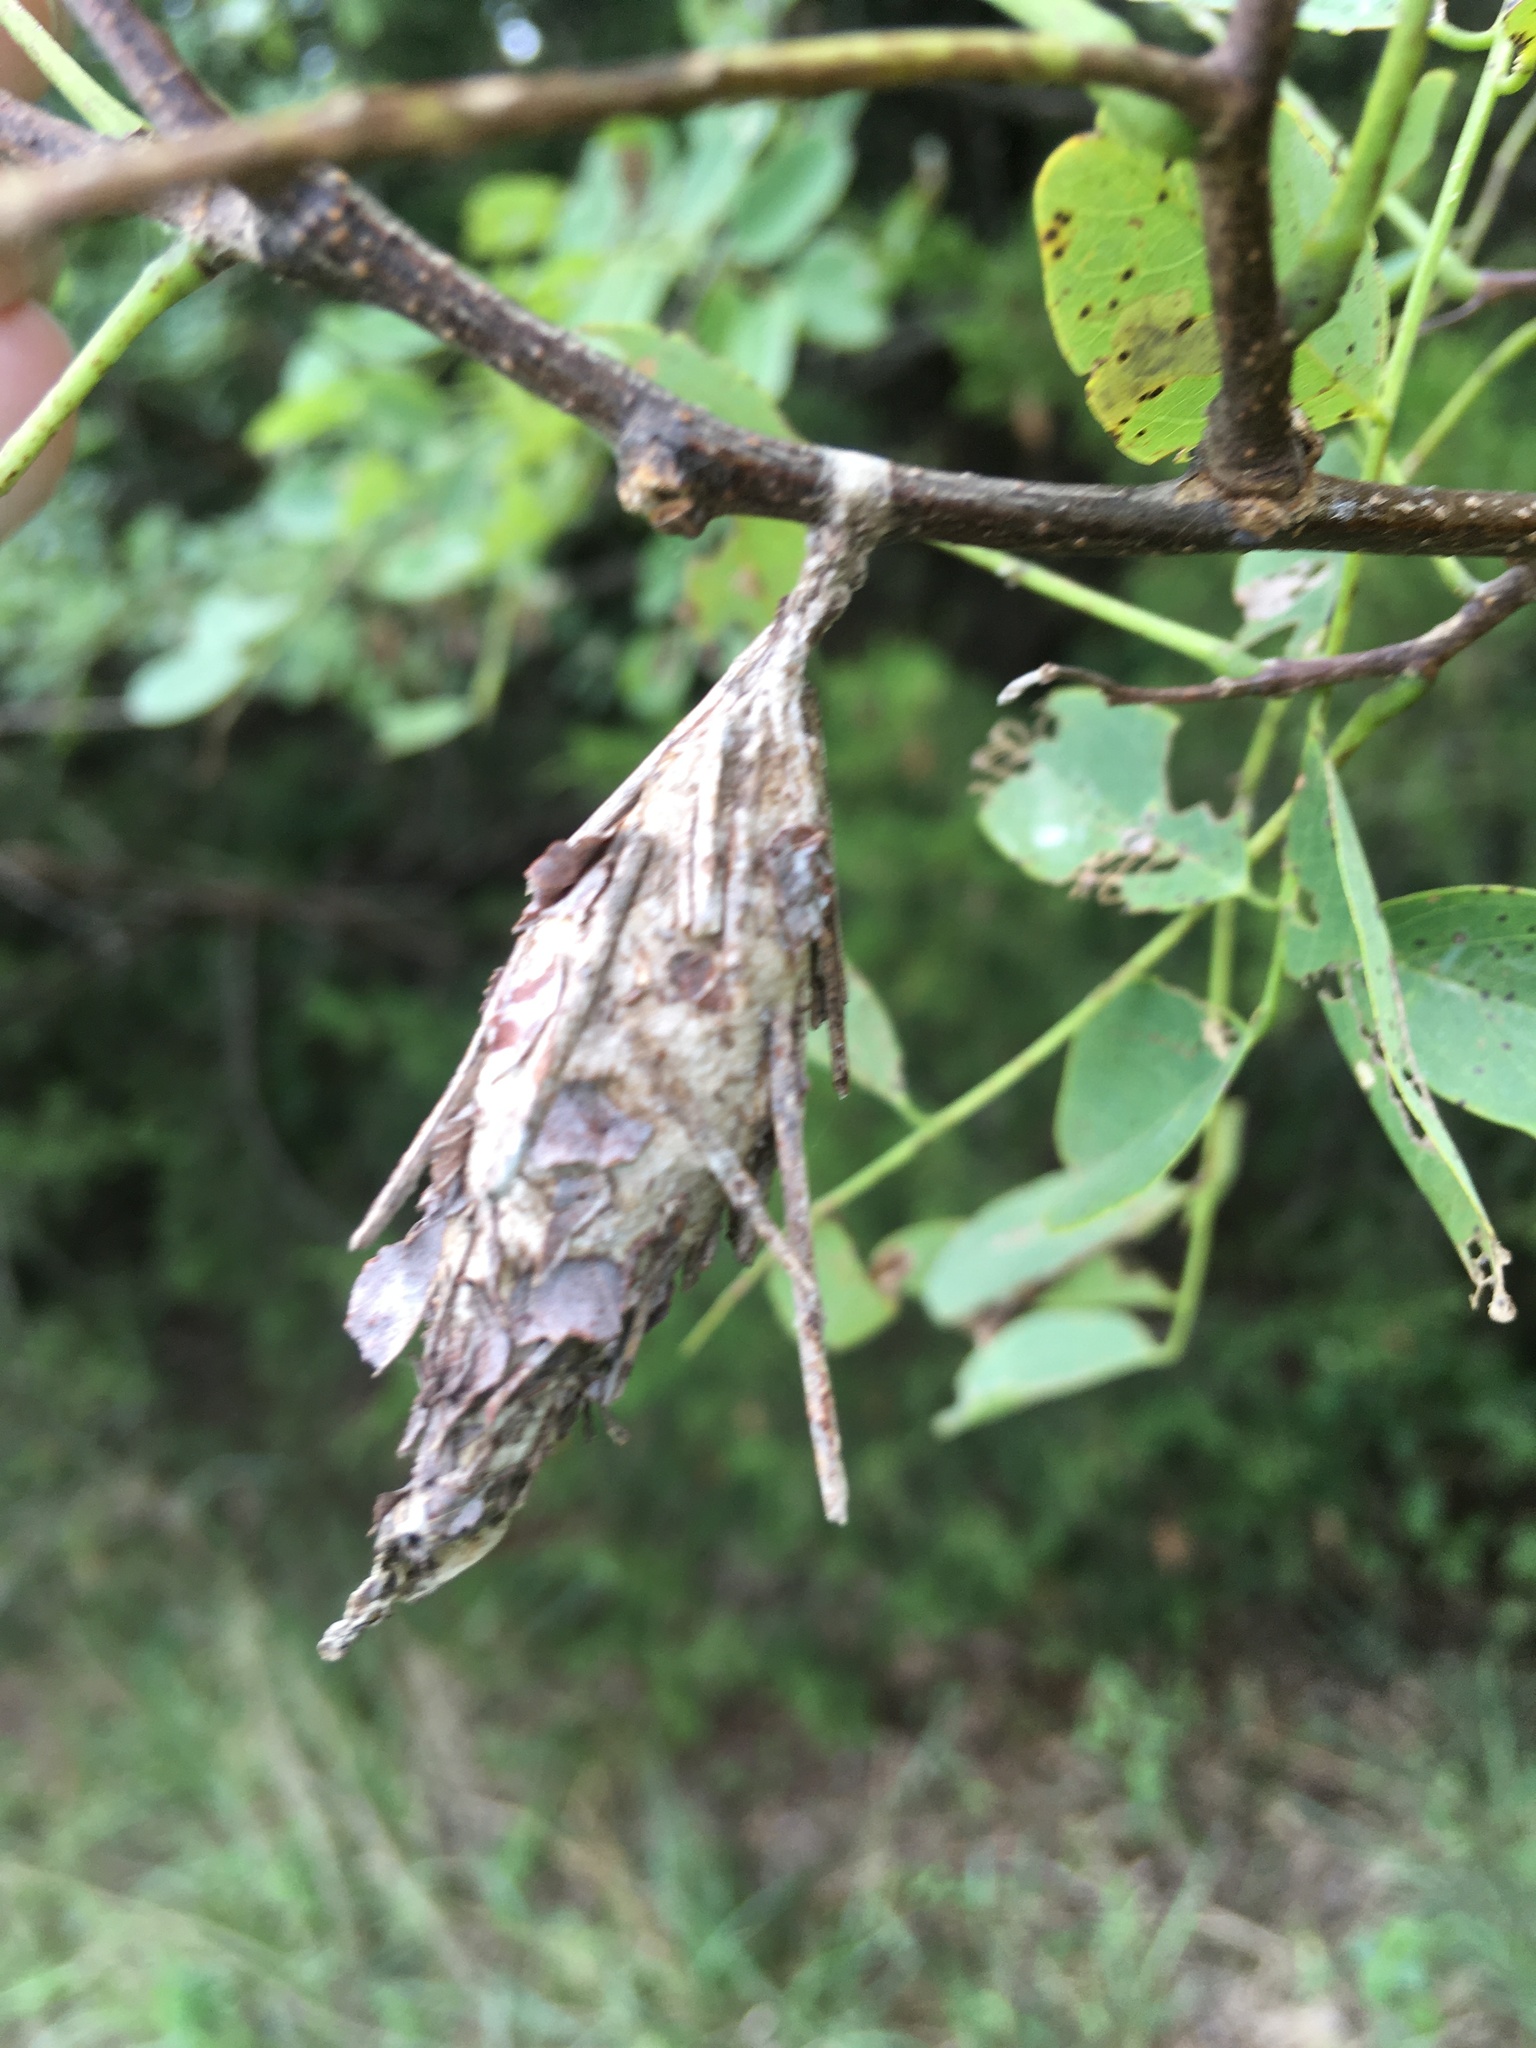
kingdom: Animalia
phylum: Arthropoda
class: Insecta
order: Lepidoptera
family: Psychidae
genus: Thyridopteryx
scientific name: Thyridopteryx ephemeraeformis
